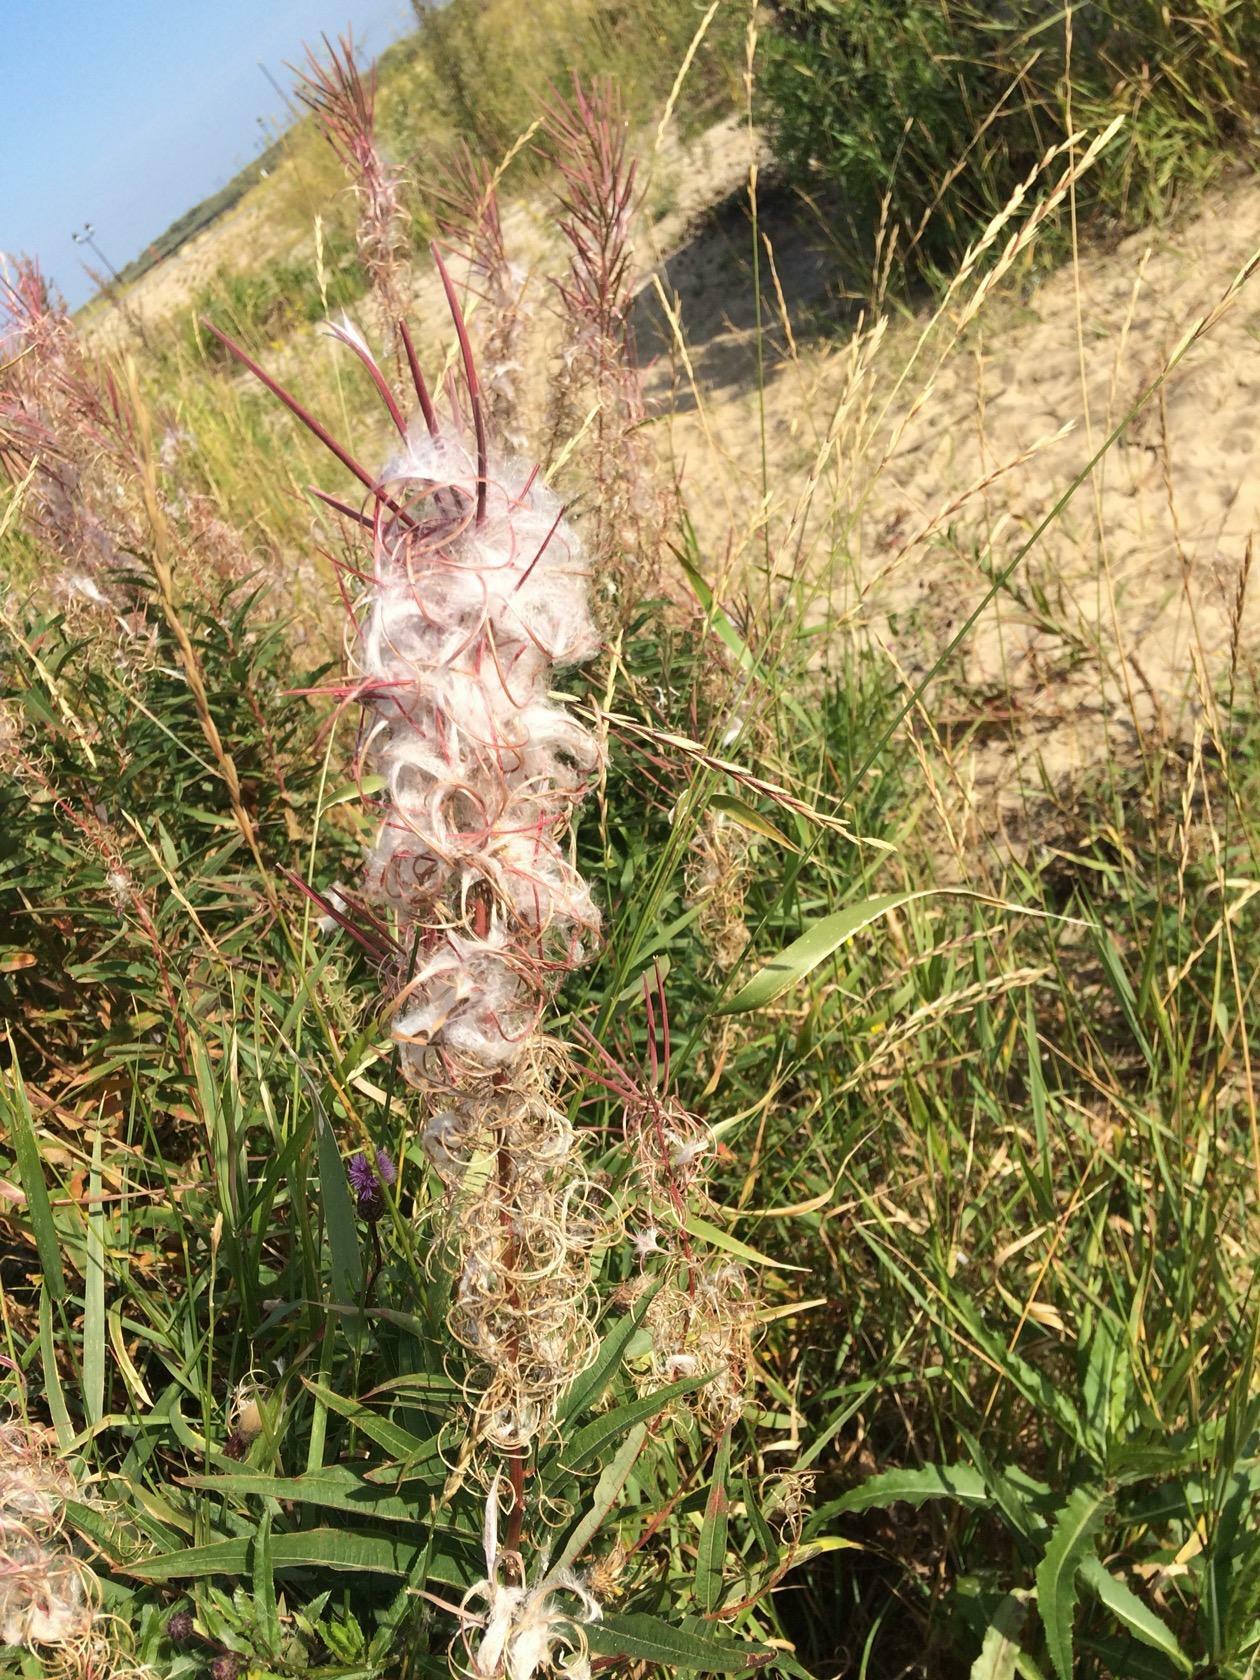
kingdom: Plantae
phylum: Tracheophyta
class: Magnoliopsida
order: Myrtales
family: Onagraceae
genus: Chamaenerion
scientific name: Chamaenerion angustifolium
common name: Fireweed
